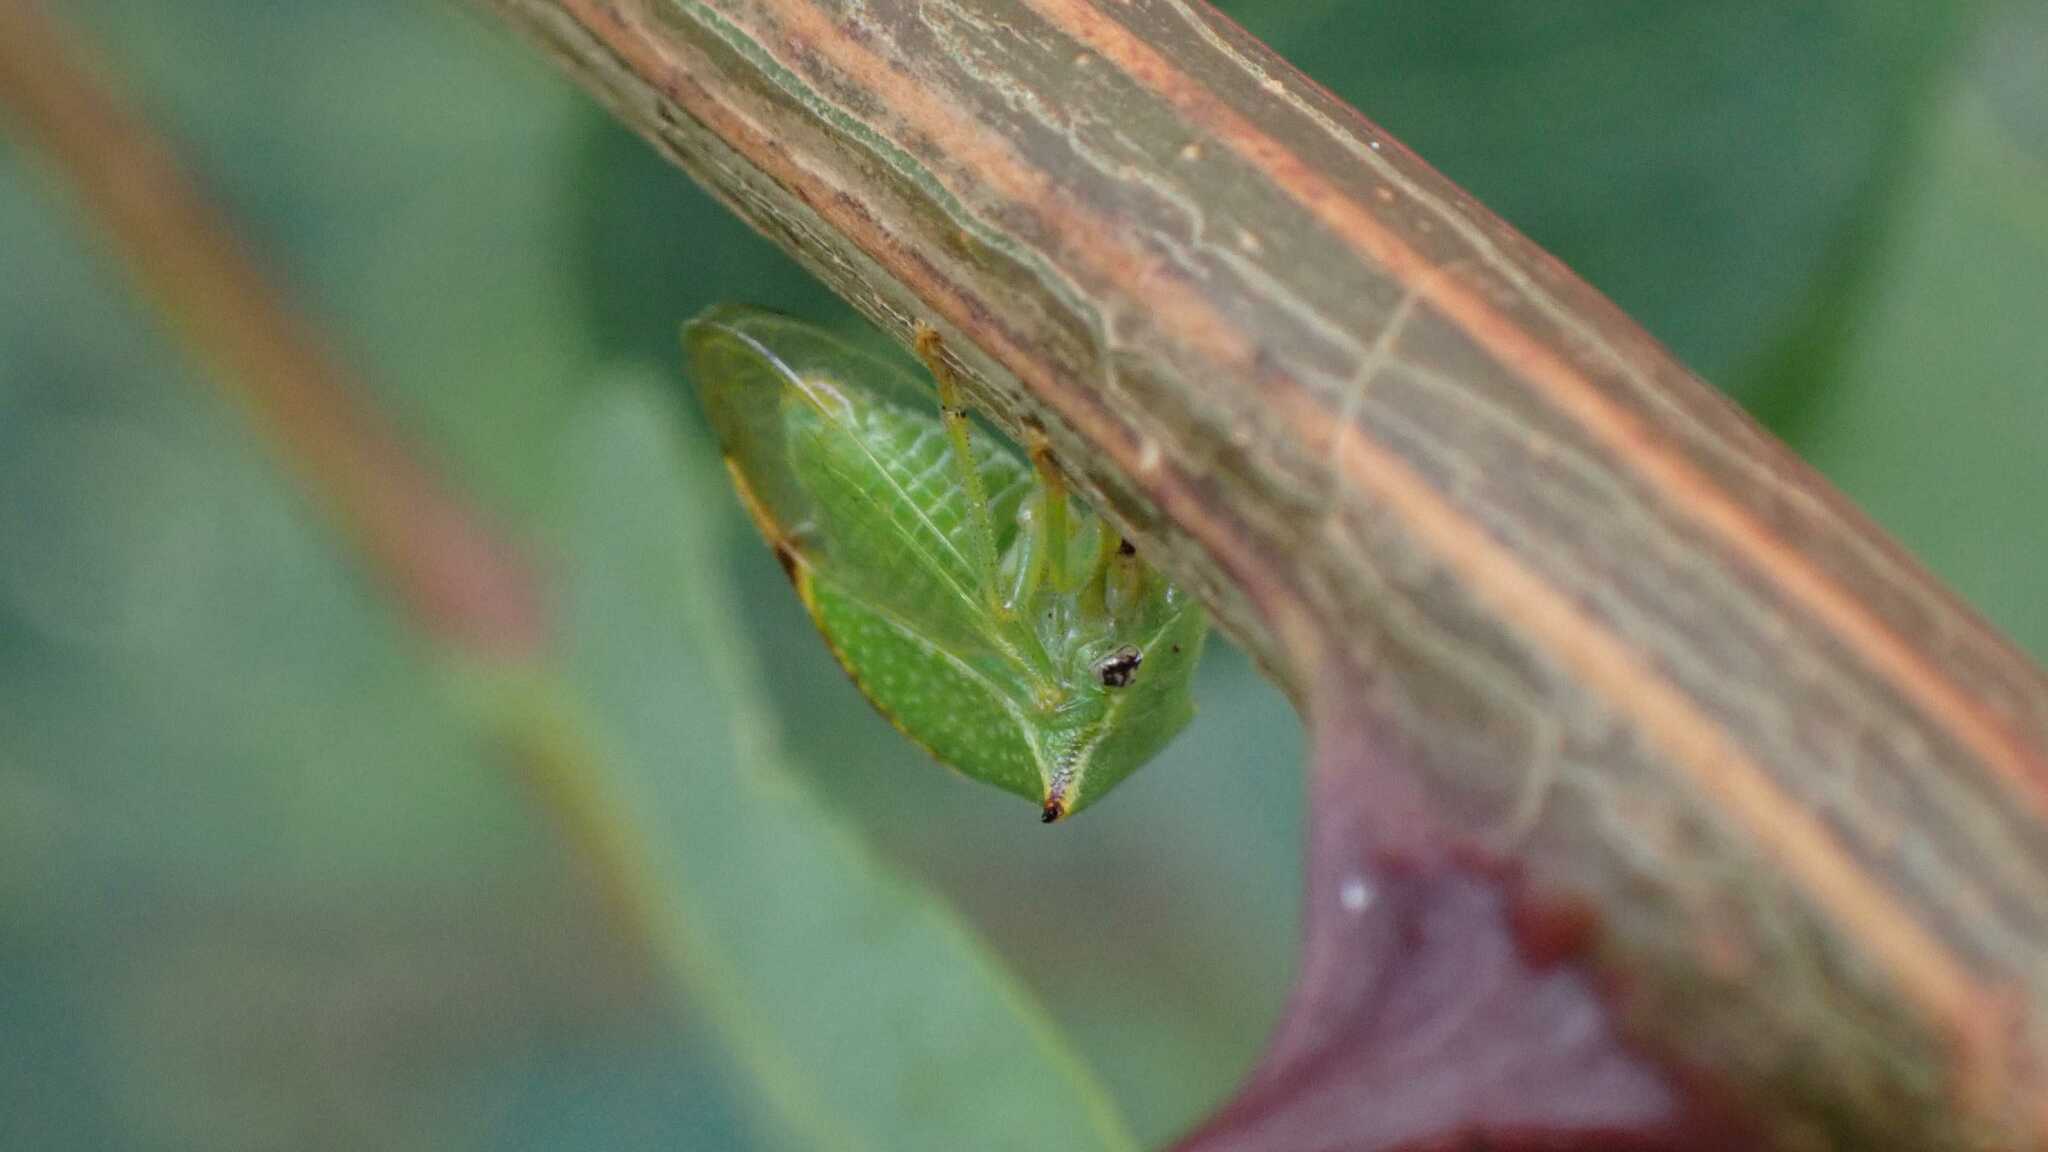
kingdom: Animalia
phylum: Arthropoda
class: Insecta
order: Hemiptera
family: Membracidae
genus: Stictocephala
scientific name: Stictocephala bisonia
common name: American buffalo treehopper
